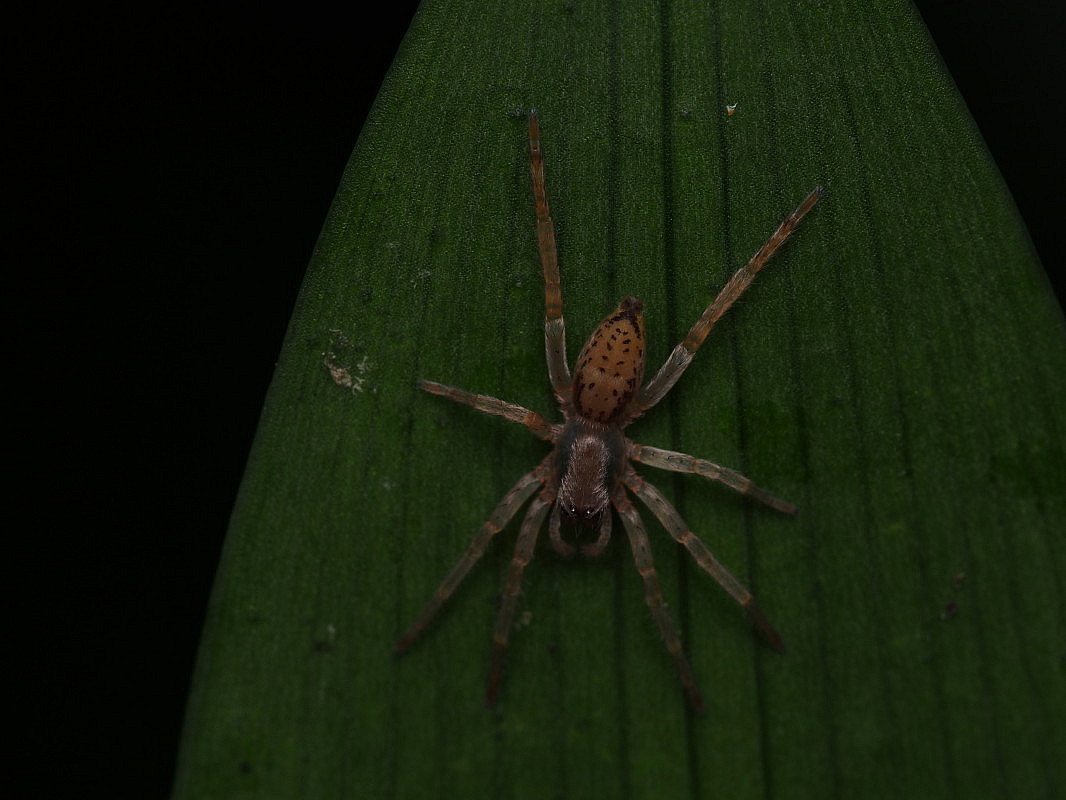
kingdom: Animalia
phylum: Arthropoda
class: Arachnida
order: Araneae
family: Clubionidae
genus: Clubiona
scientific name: Clubiona peculiaris
